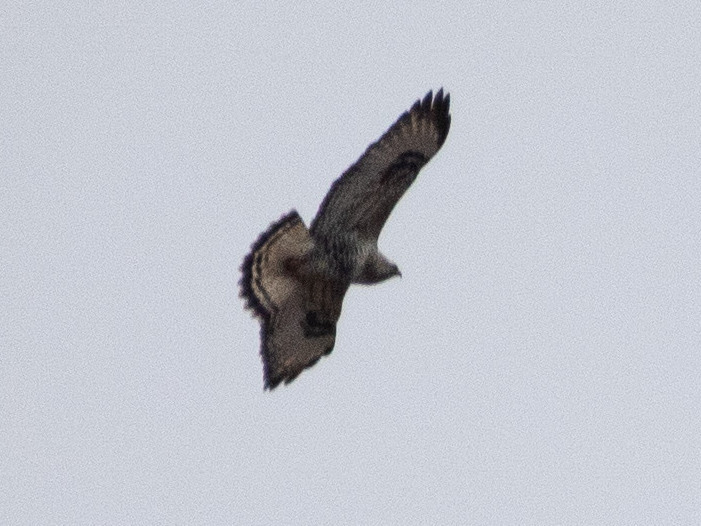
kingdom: Animalia
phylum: Chordata
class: Aves
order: Accipitriformes
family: Accipitridae
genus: Buteo
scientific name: Buteo lagopus
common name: Rough-legged buzzard
